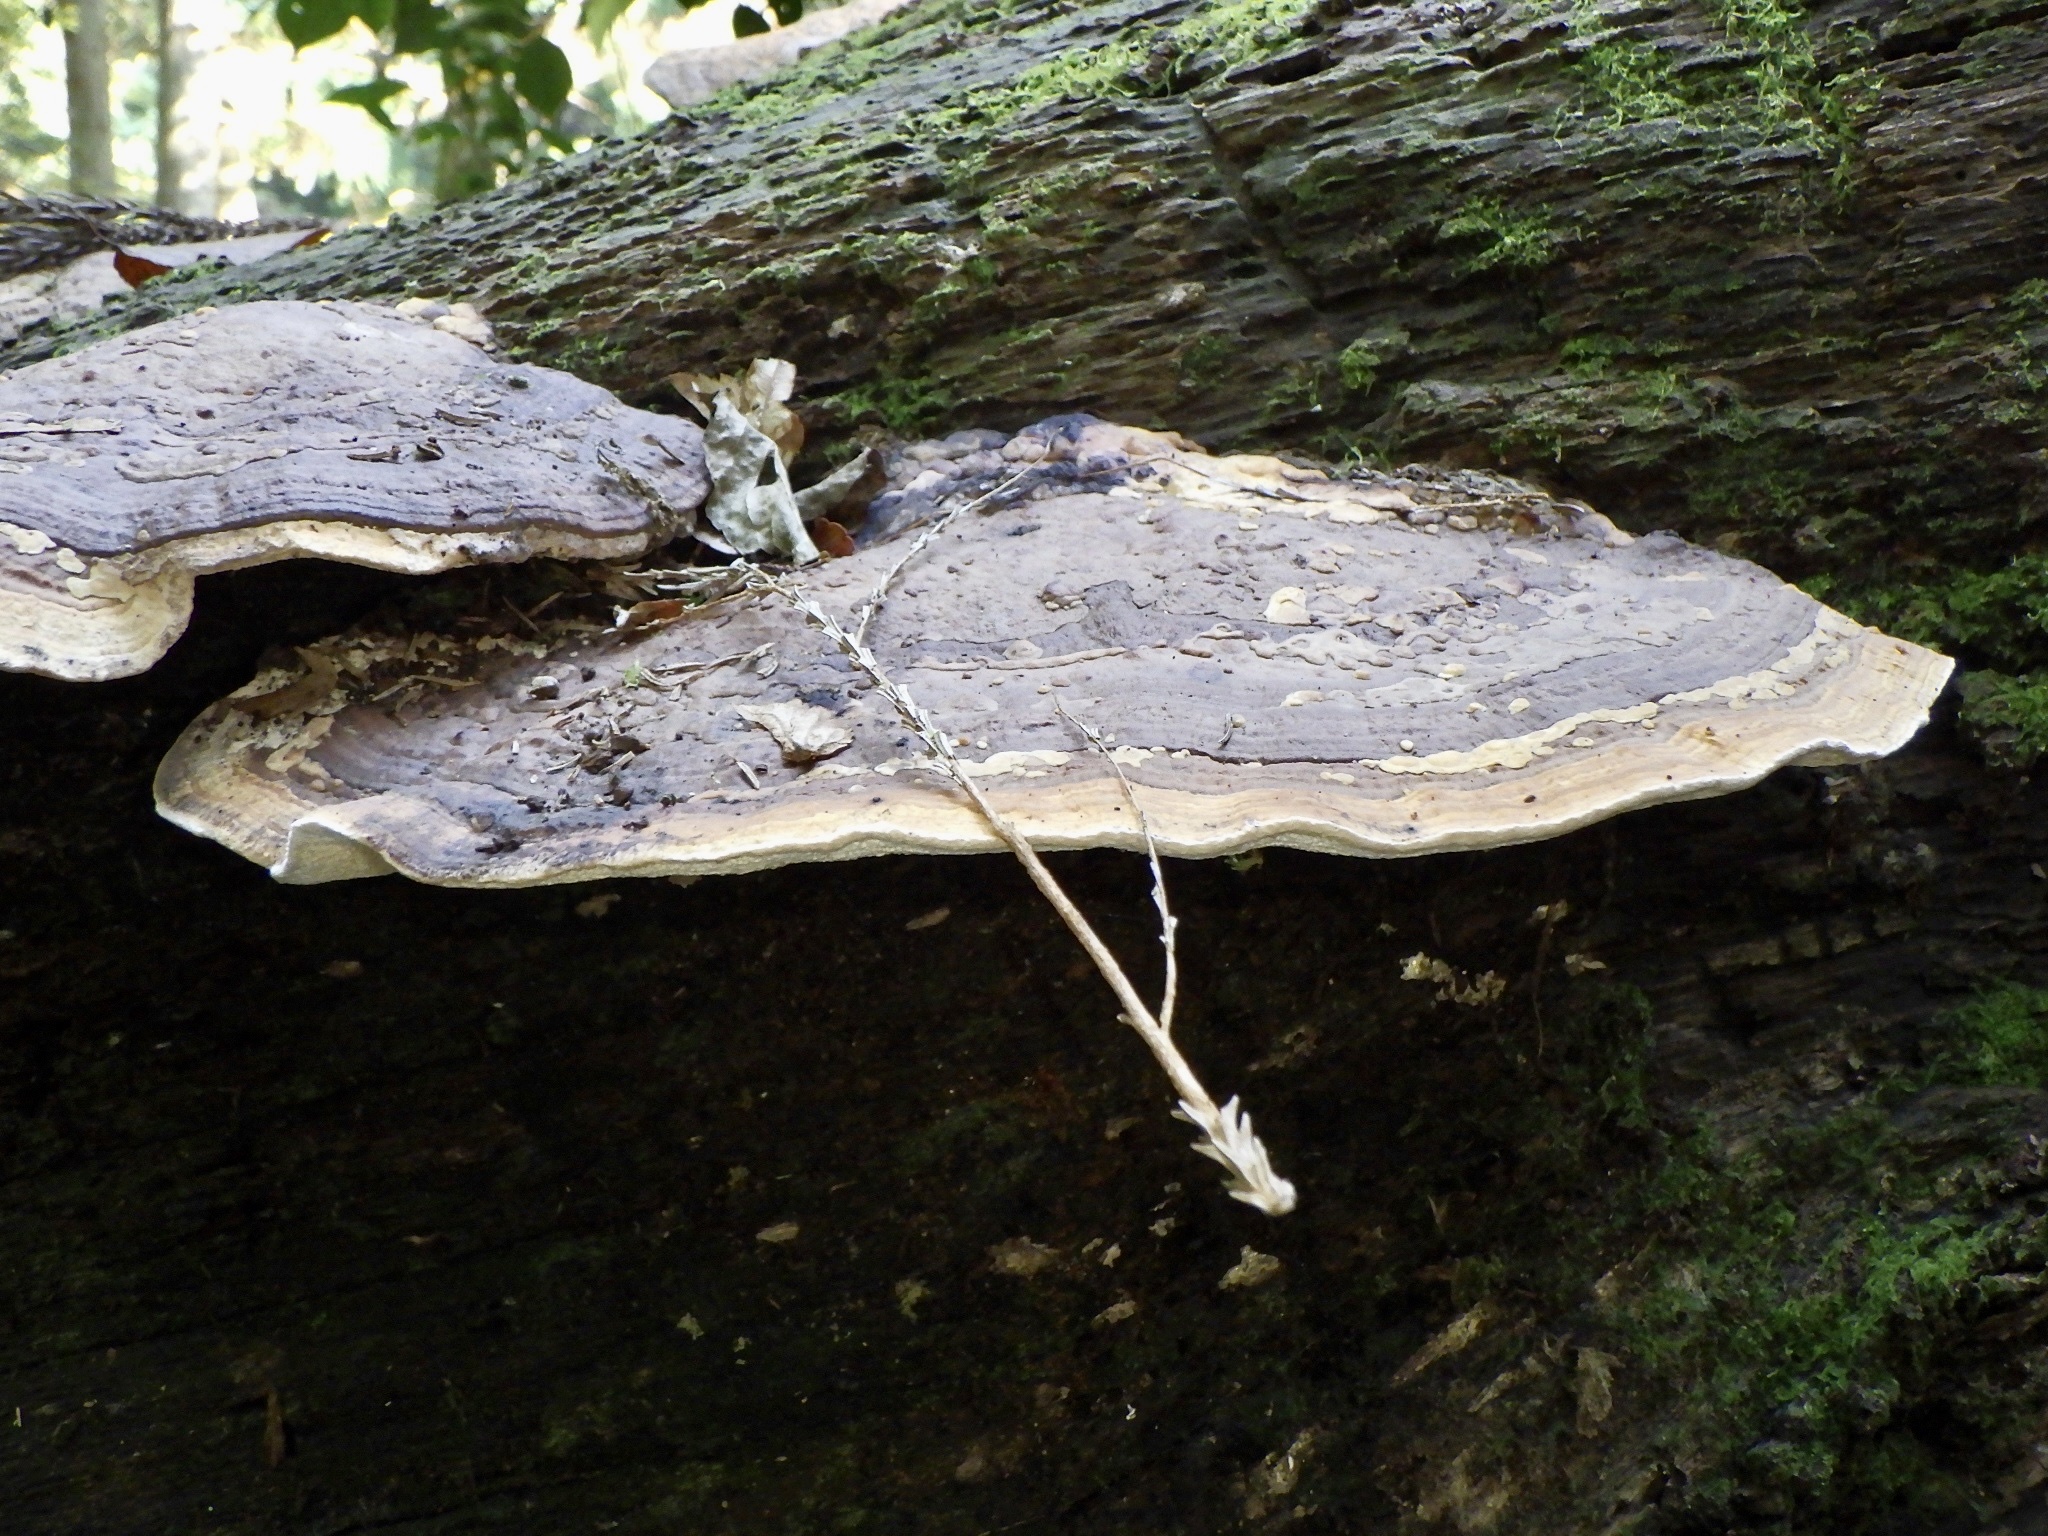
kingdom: Fungi
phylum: Basidiomycota
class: Agaricomycetes
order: Polyporales
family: Fomitopsidaceae
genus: Fomitopsis
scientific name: Fomitopsis
